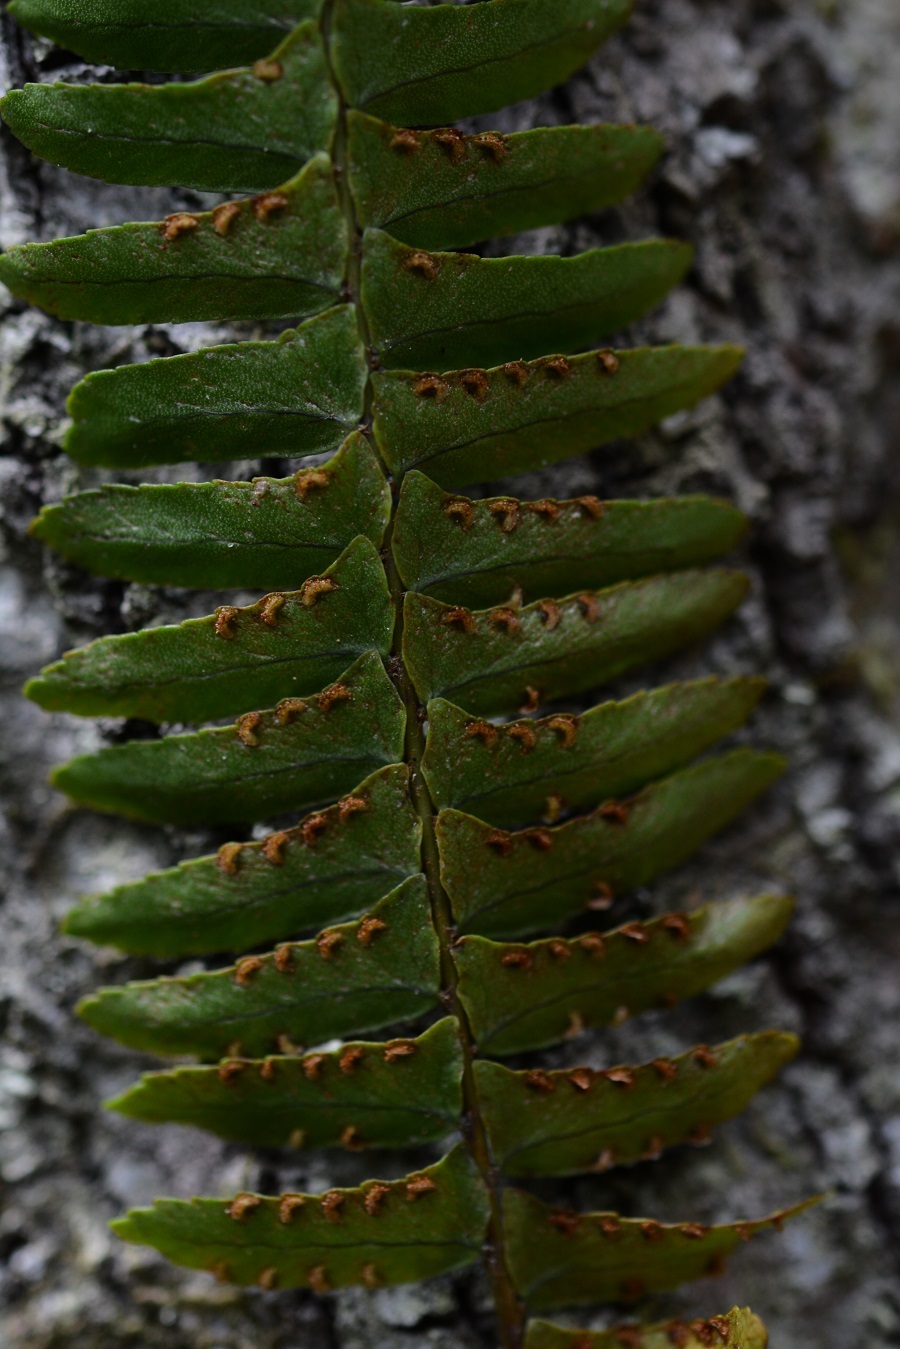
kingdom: Plantae
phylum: Tracheophyta
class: Polypodiopsida
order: Polypodiales
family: Nephrolepidaceae
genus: Nephrolepis
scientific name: Nephrolepis rivularis
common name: Streamside swordfern
